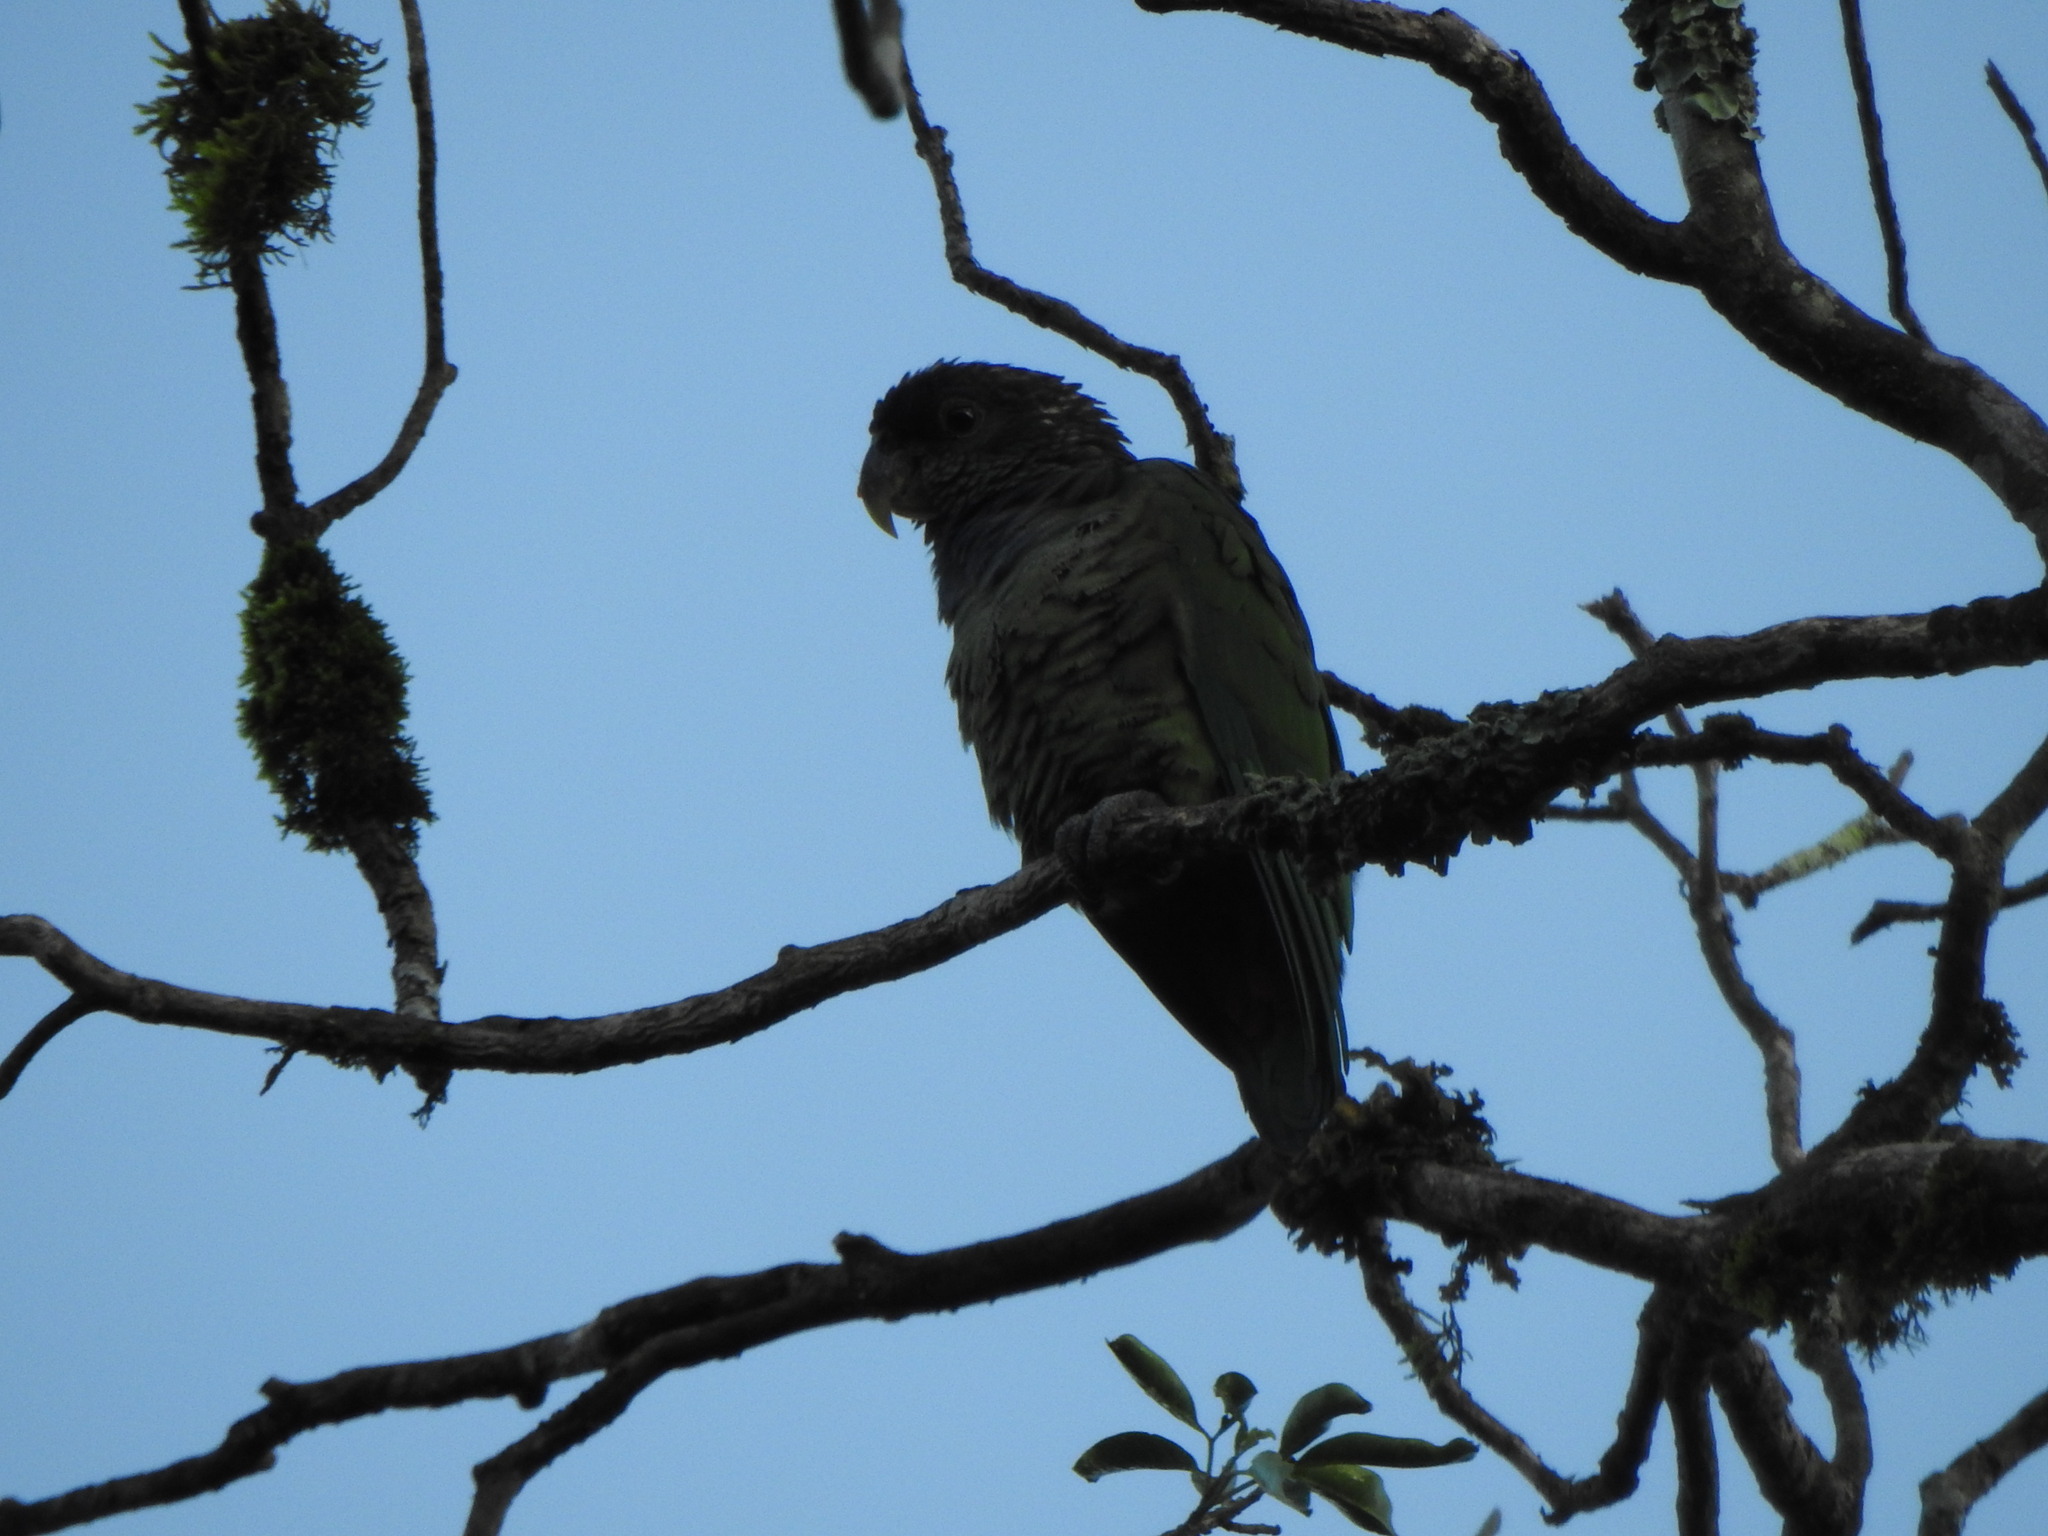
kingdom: Animalia
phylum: Chordata
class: Aves
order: Psittaciformes
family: Psittacidae
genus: Pionus
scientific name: Pionus maximiliani
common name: Scaly-headed parrot
